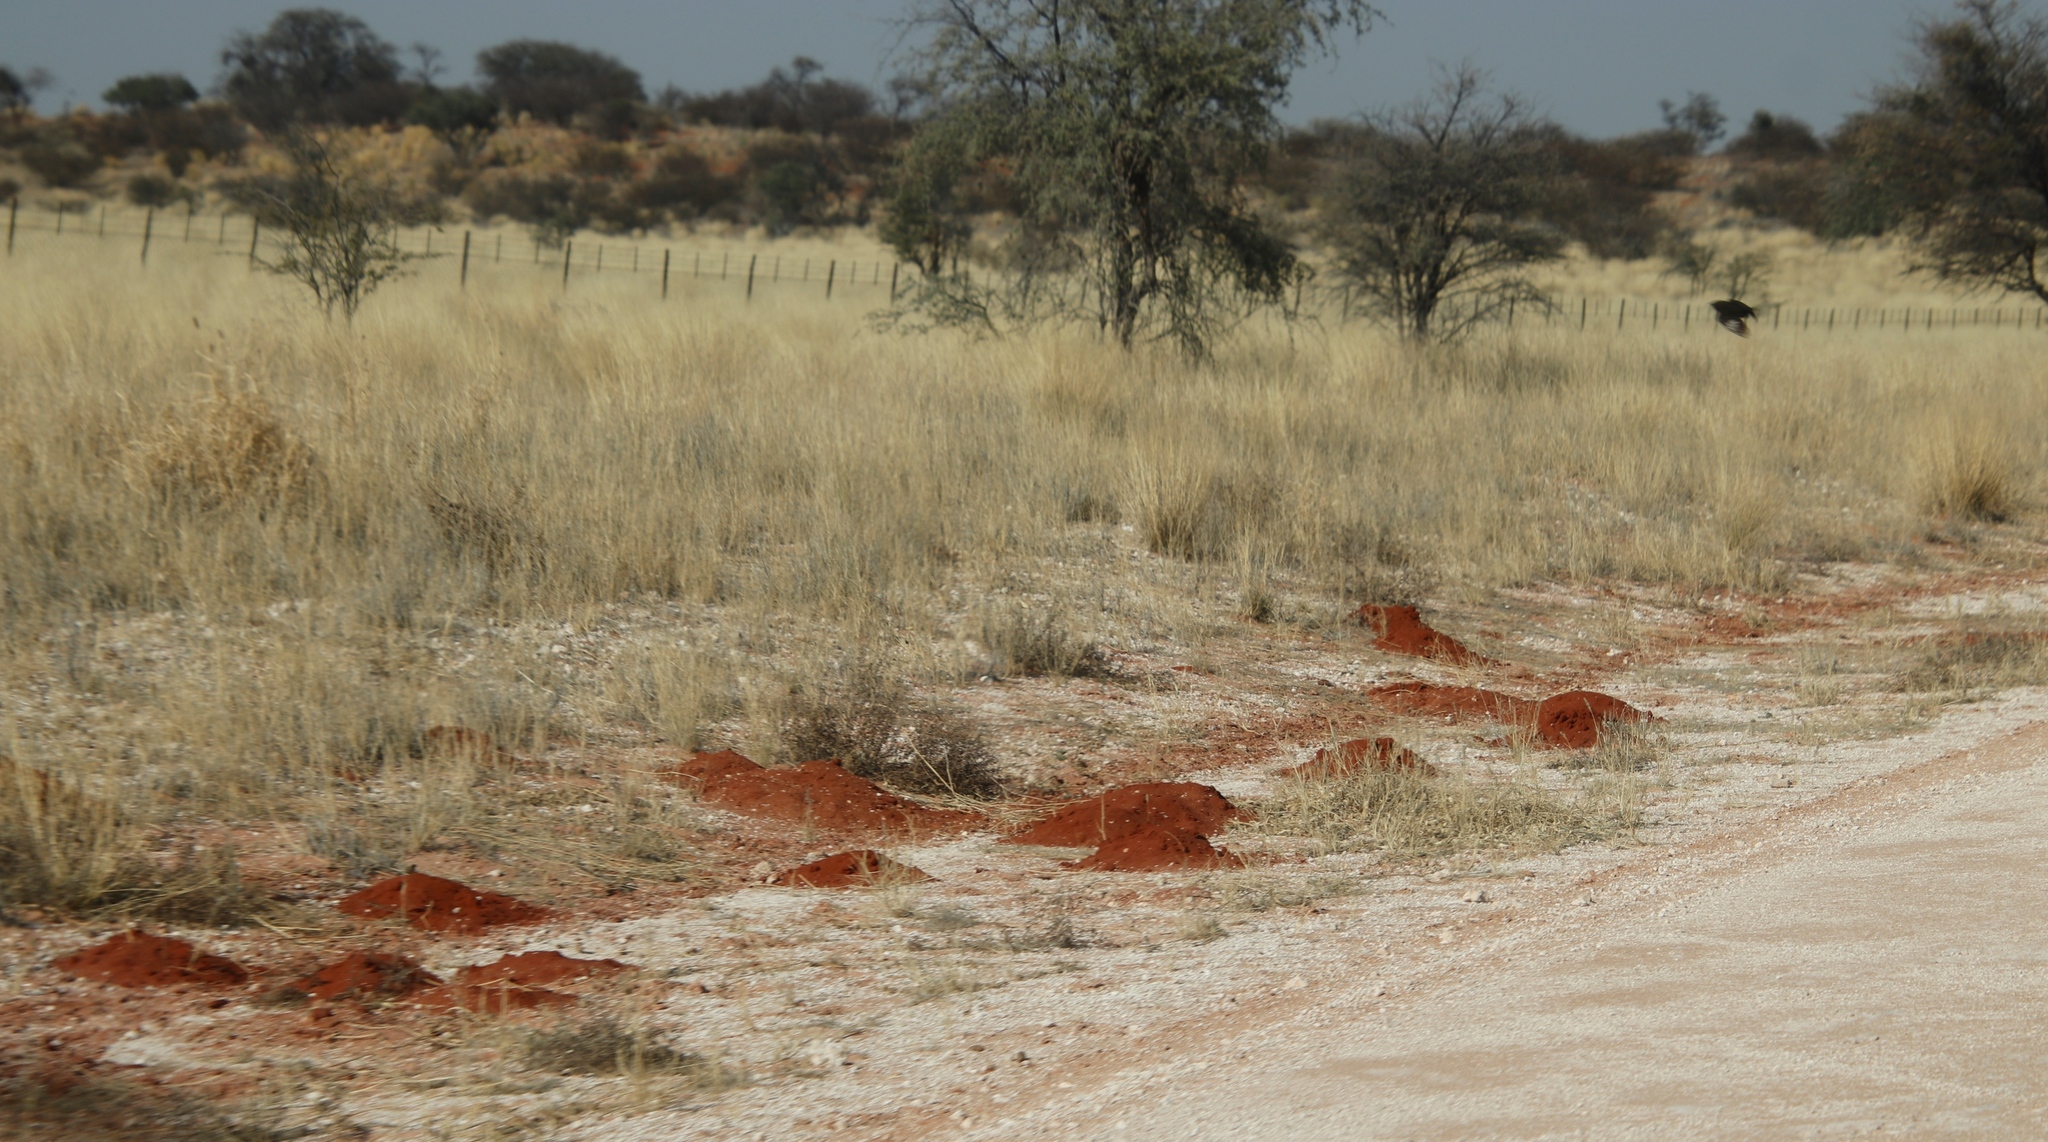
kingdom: Animalia
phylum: Chordata
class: Mammalia
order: Rodentia
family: Bathyergidae
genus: Fukomys
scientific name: Fukomys damarensis
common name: Damara mole rat
